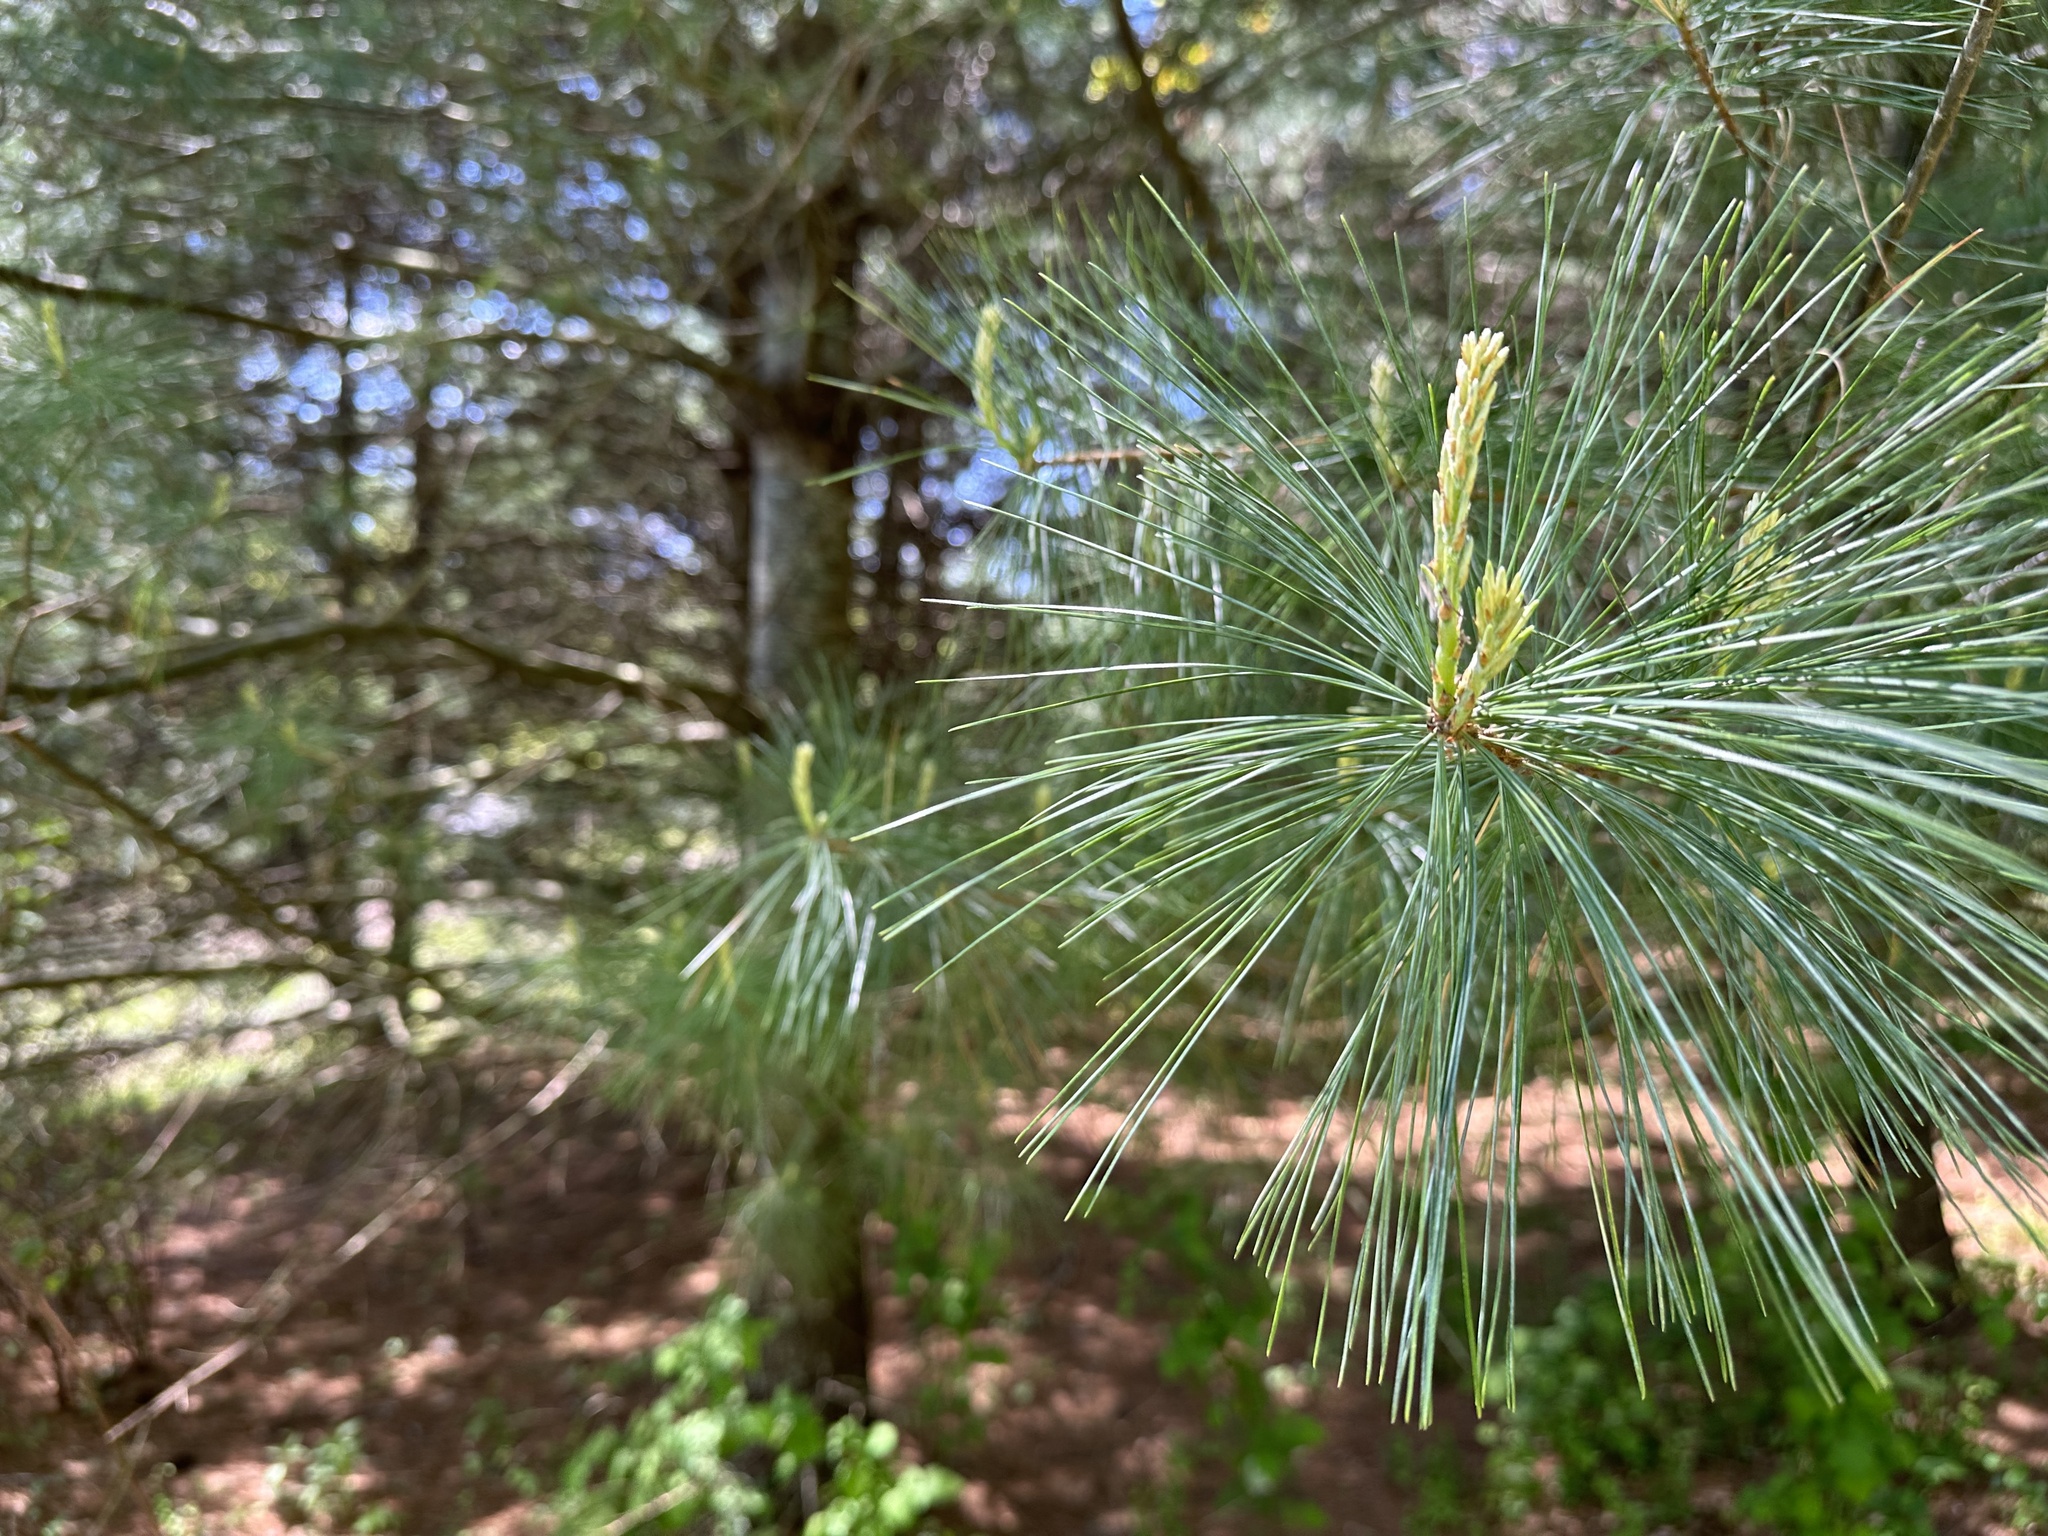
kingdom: Plantae
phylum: Tracheophyta
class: Pinopsida
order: Pinales
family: Pinaceae
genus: Pinus
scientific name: Pinus strobus
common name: Weymouth pine
